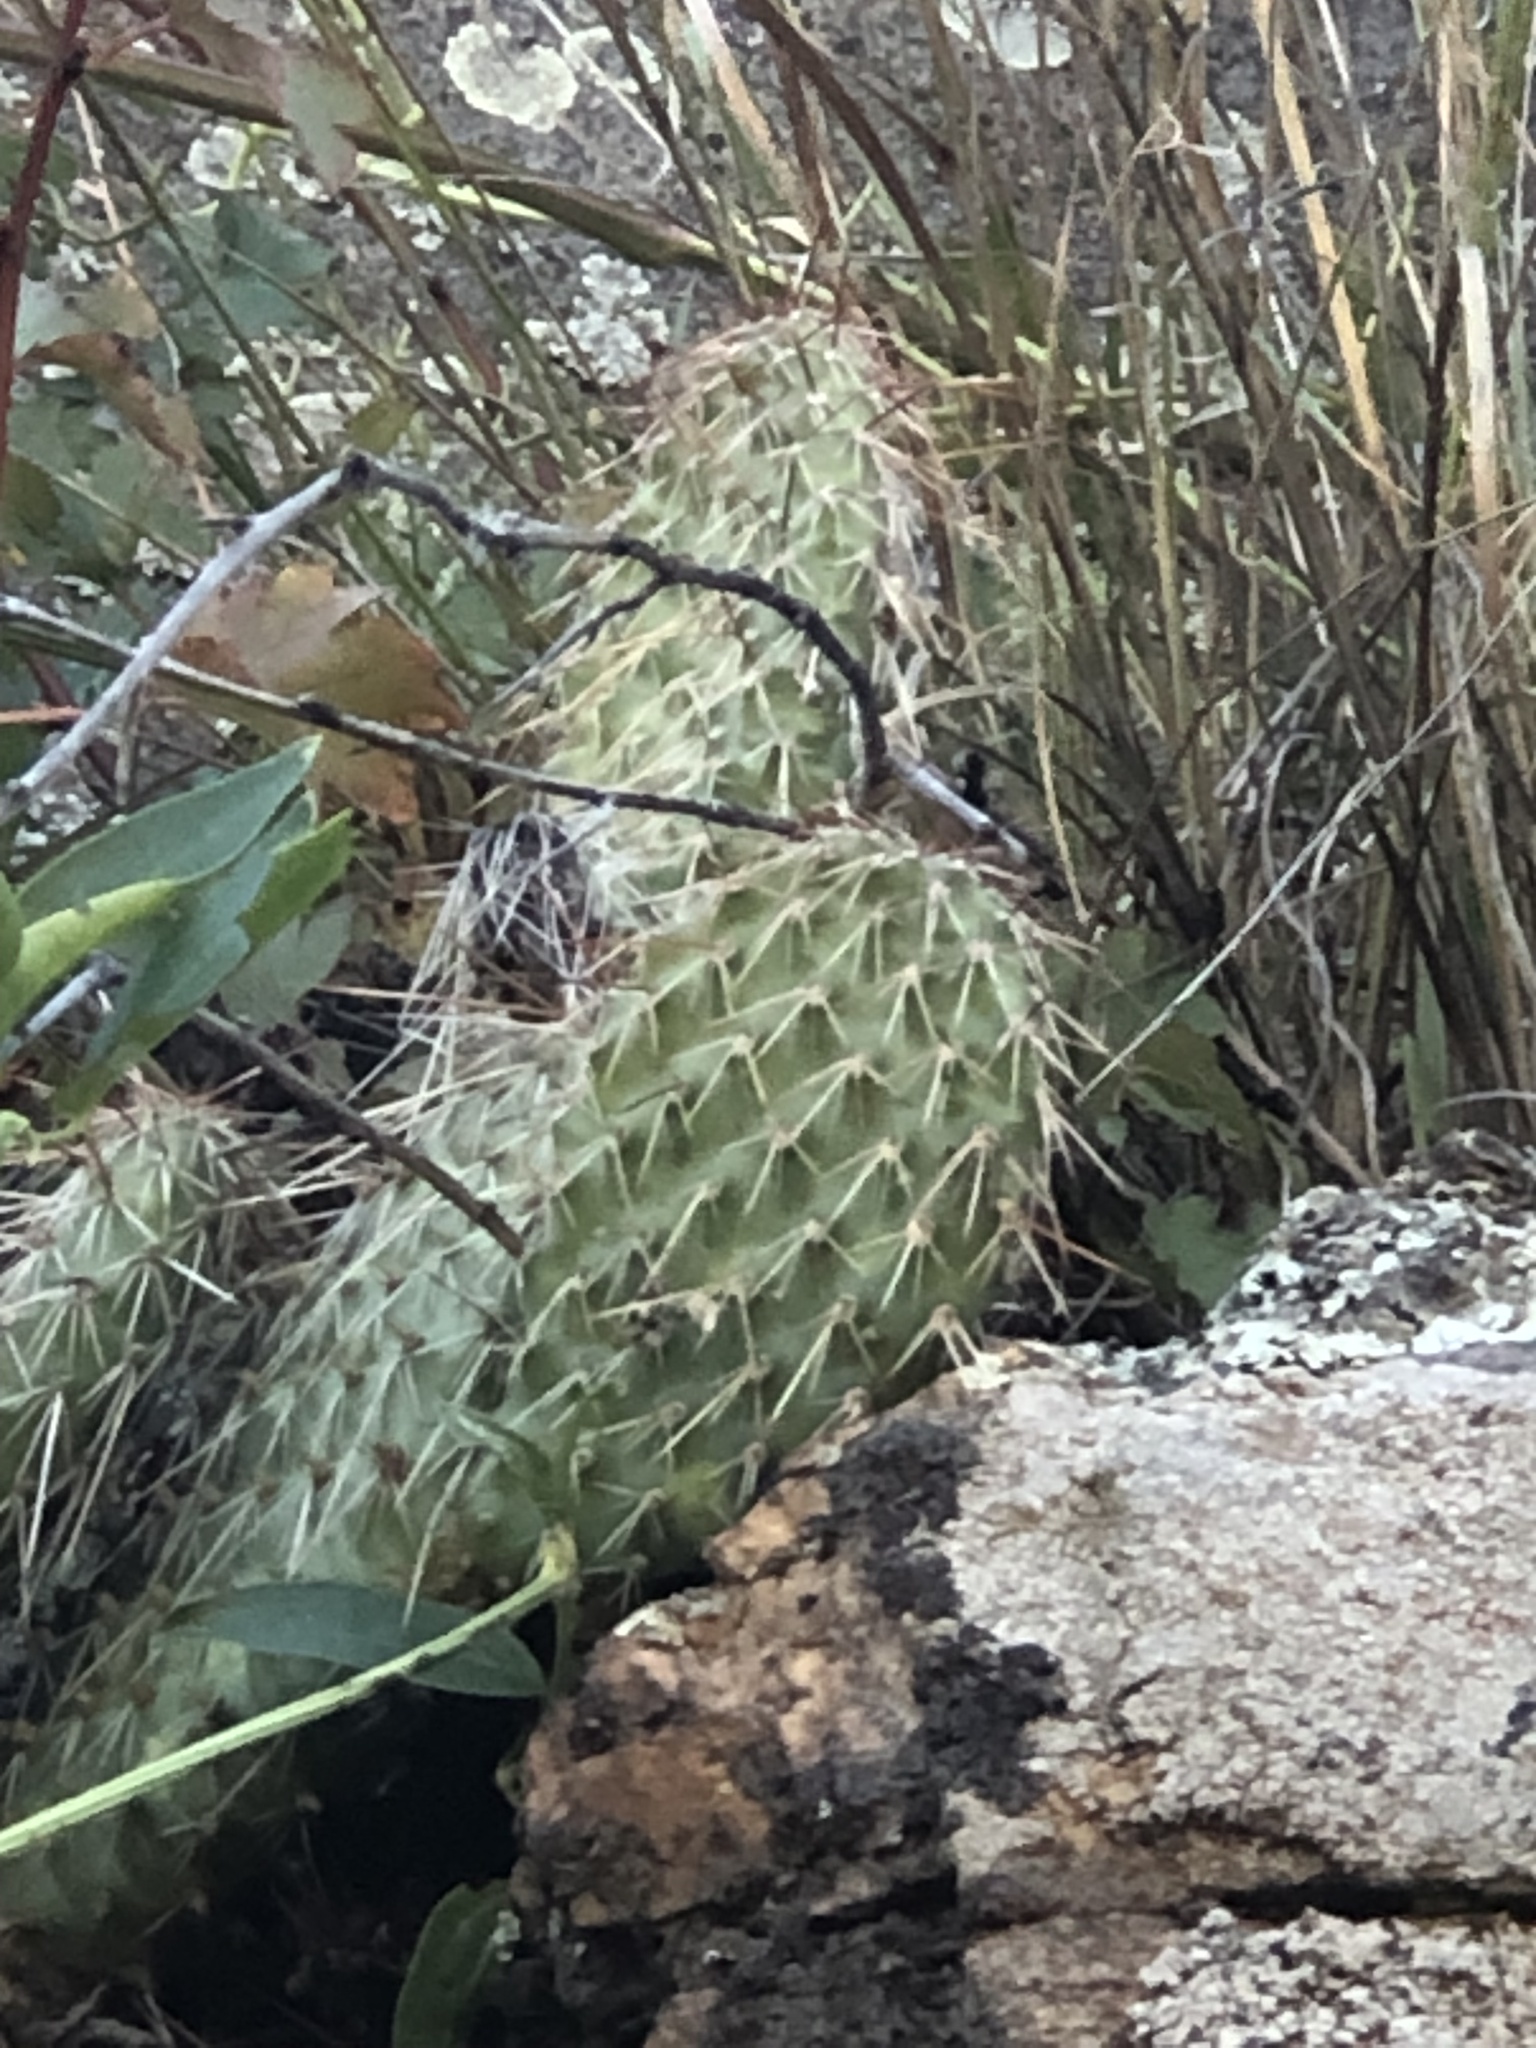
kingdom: Plantae
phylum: Tracheophyta
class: Magnoliopsida
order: Caryophyllales
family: Cactaceae
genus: Opuntia
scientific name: Opuntia polyacantha
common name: Plains prickly-pear
